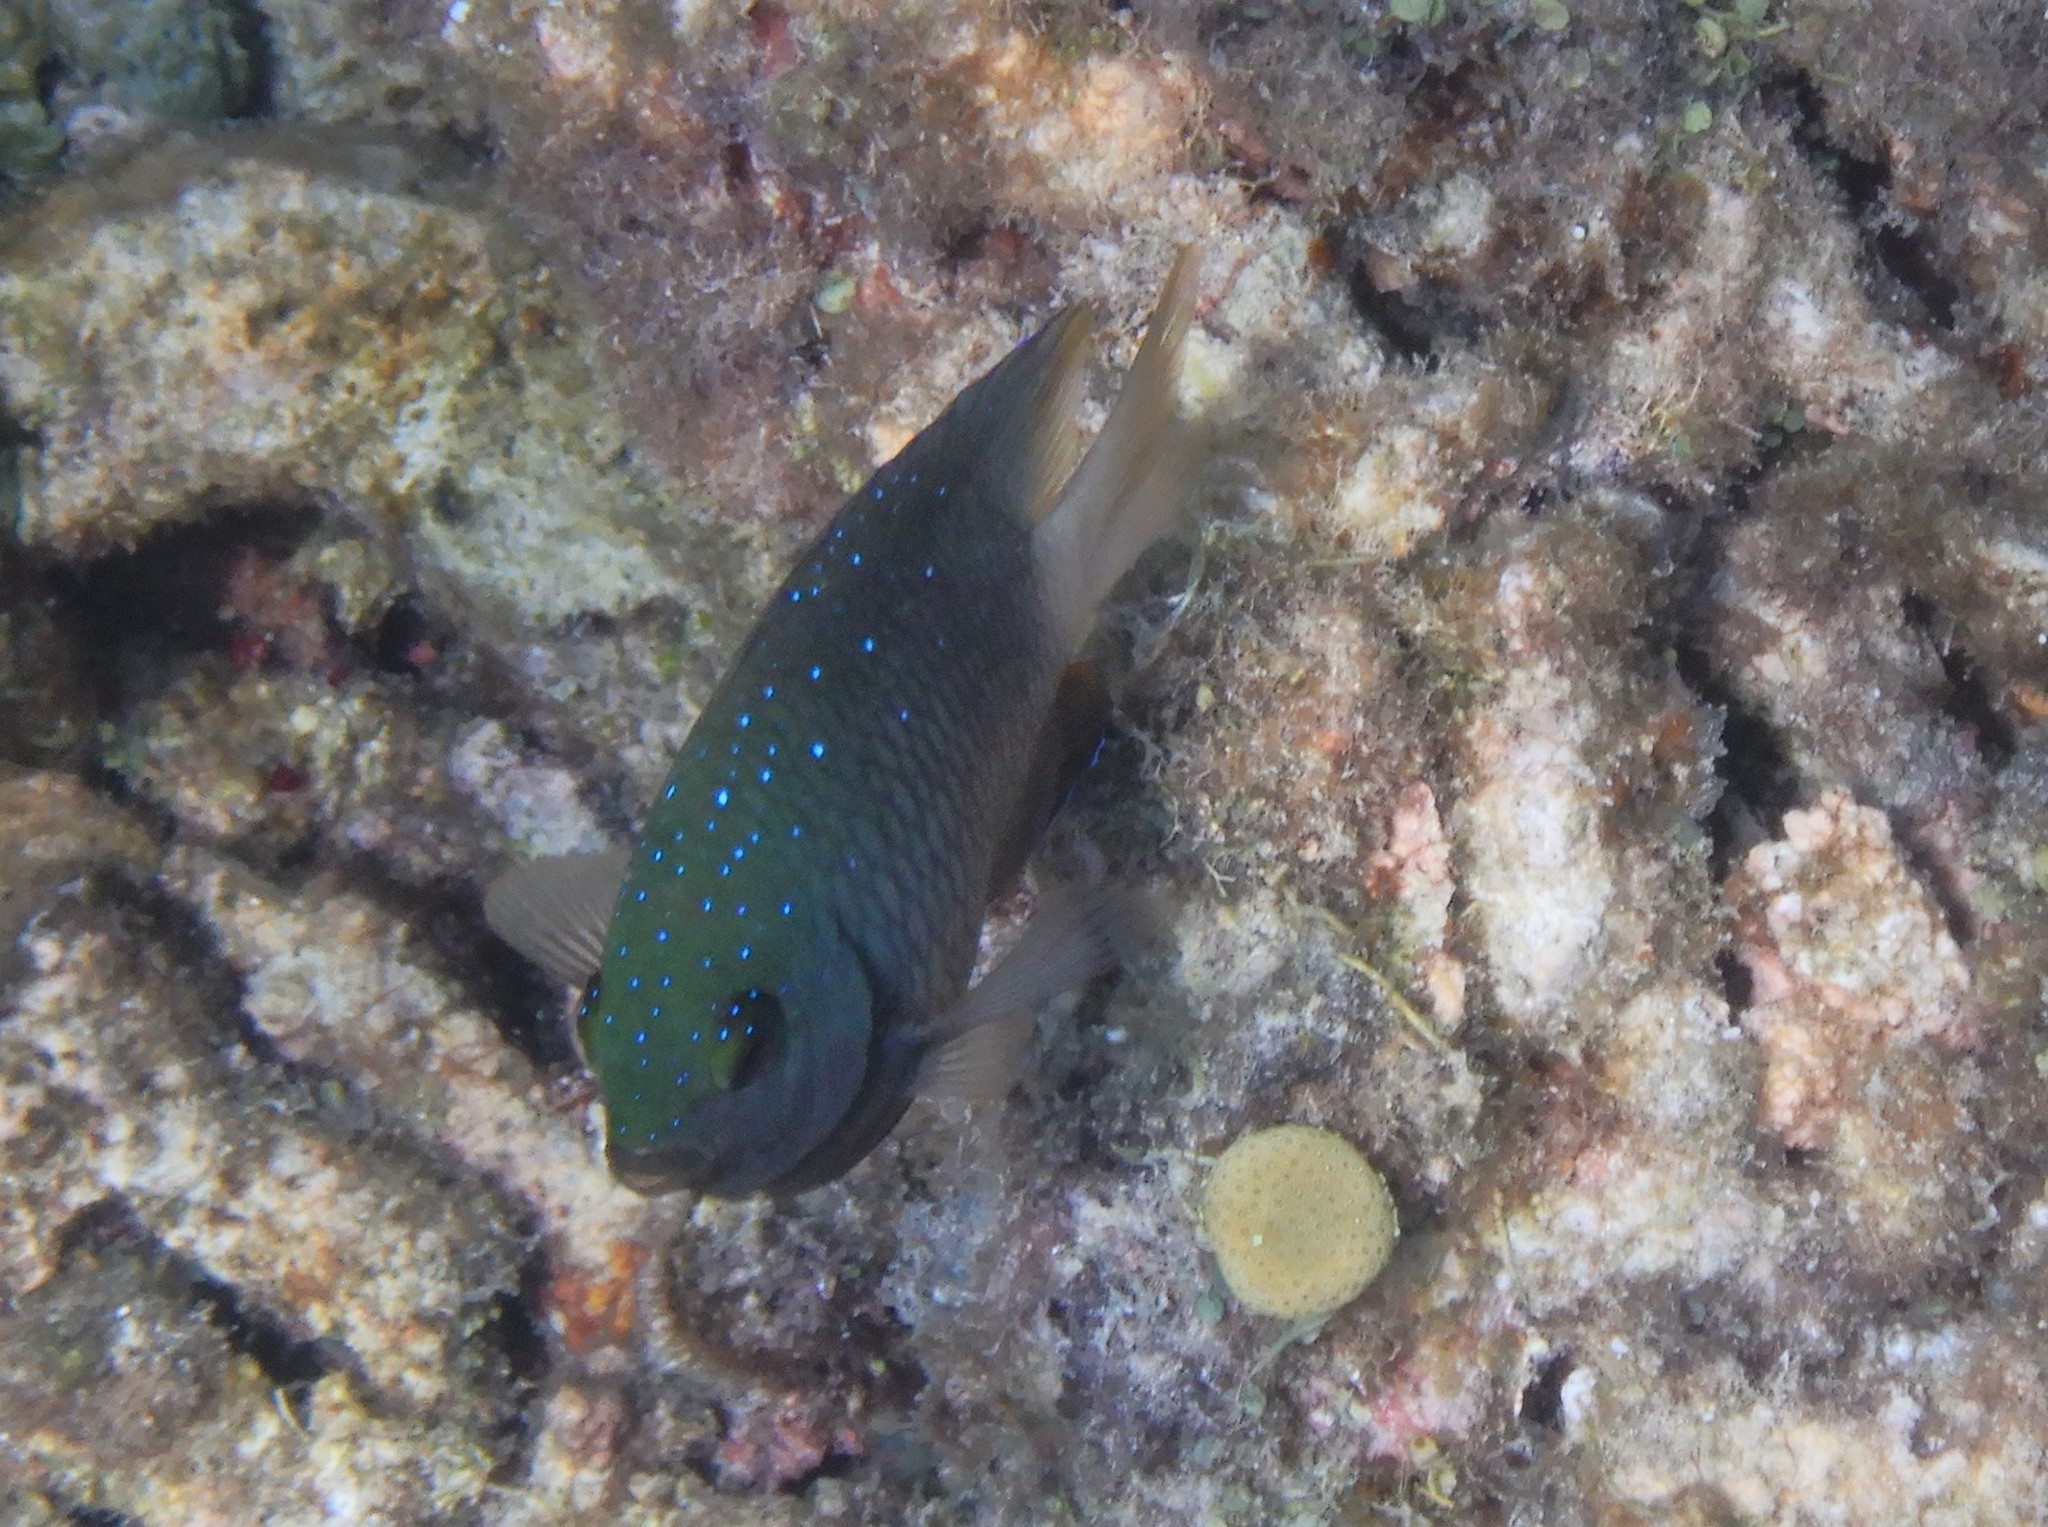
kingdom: Animalia
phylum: Chordata
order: Perciformes
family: Pomacentridae
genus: Plectroglyphidodon
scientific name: Plectroglyphidodon lacrymatus
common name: Jewel damsel
